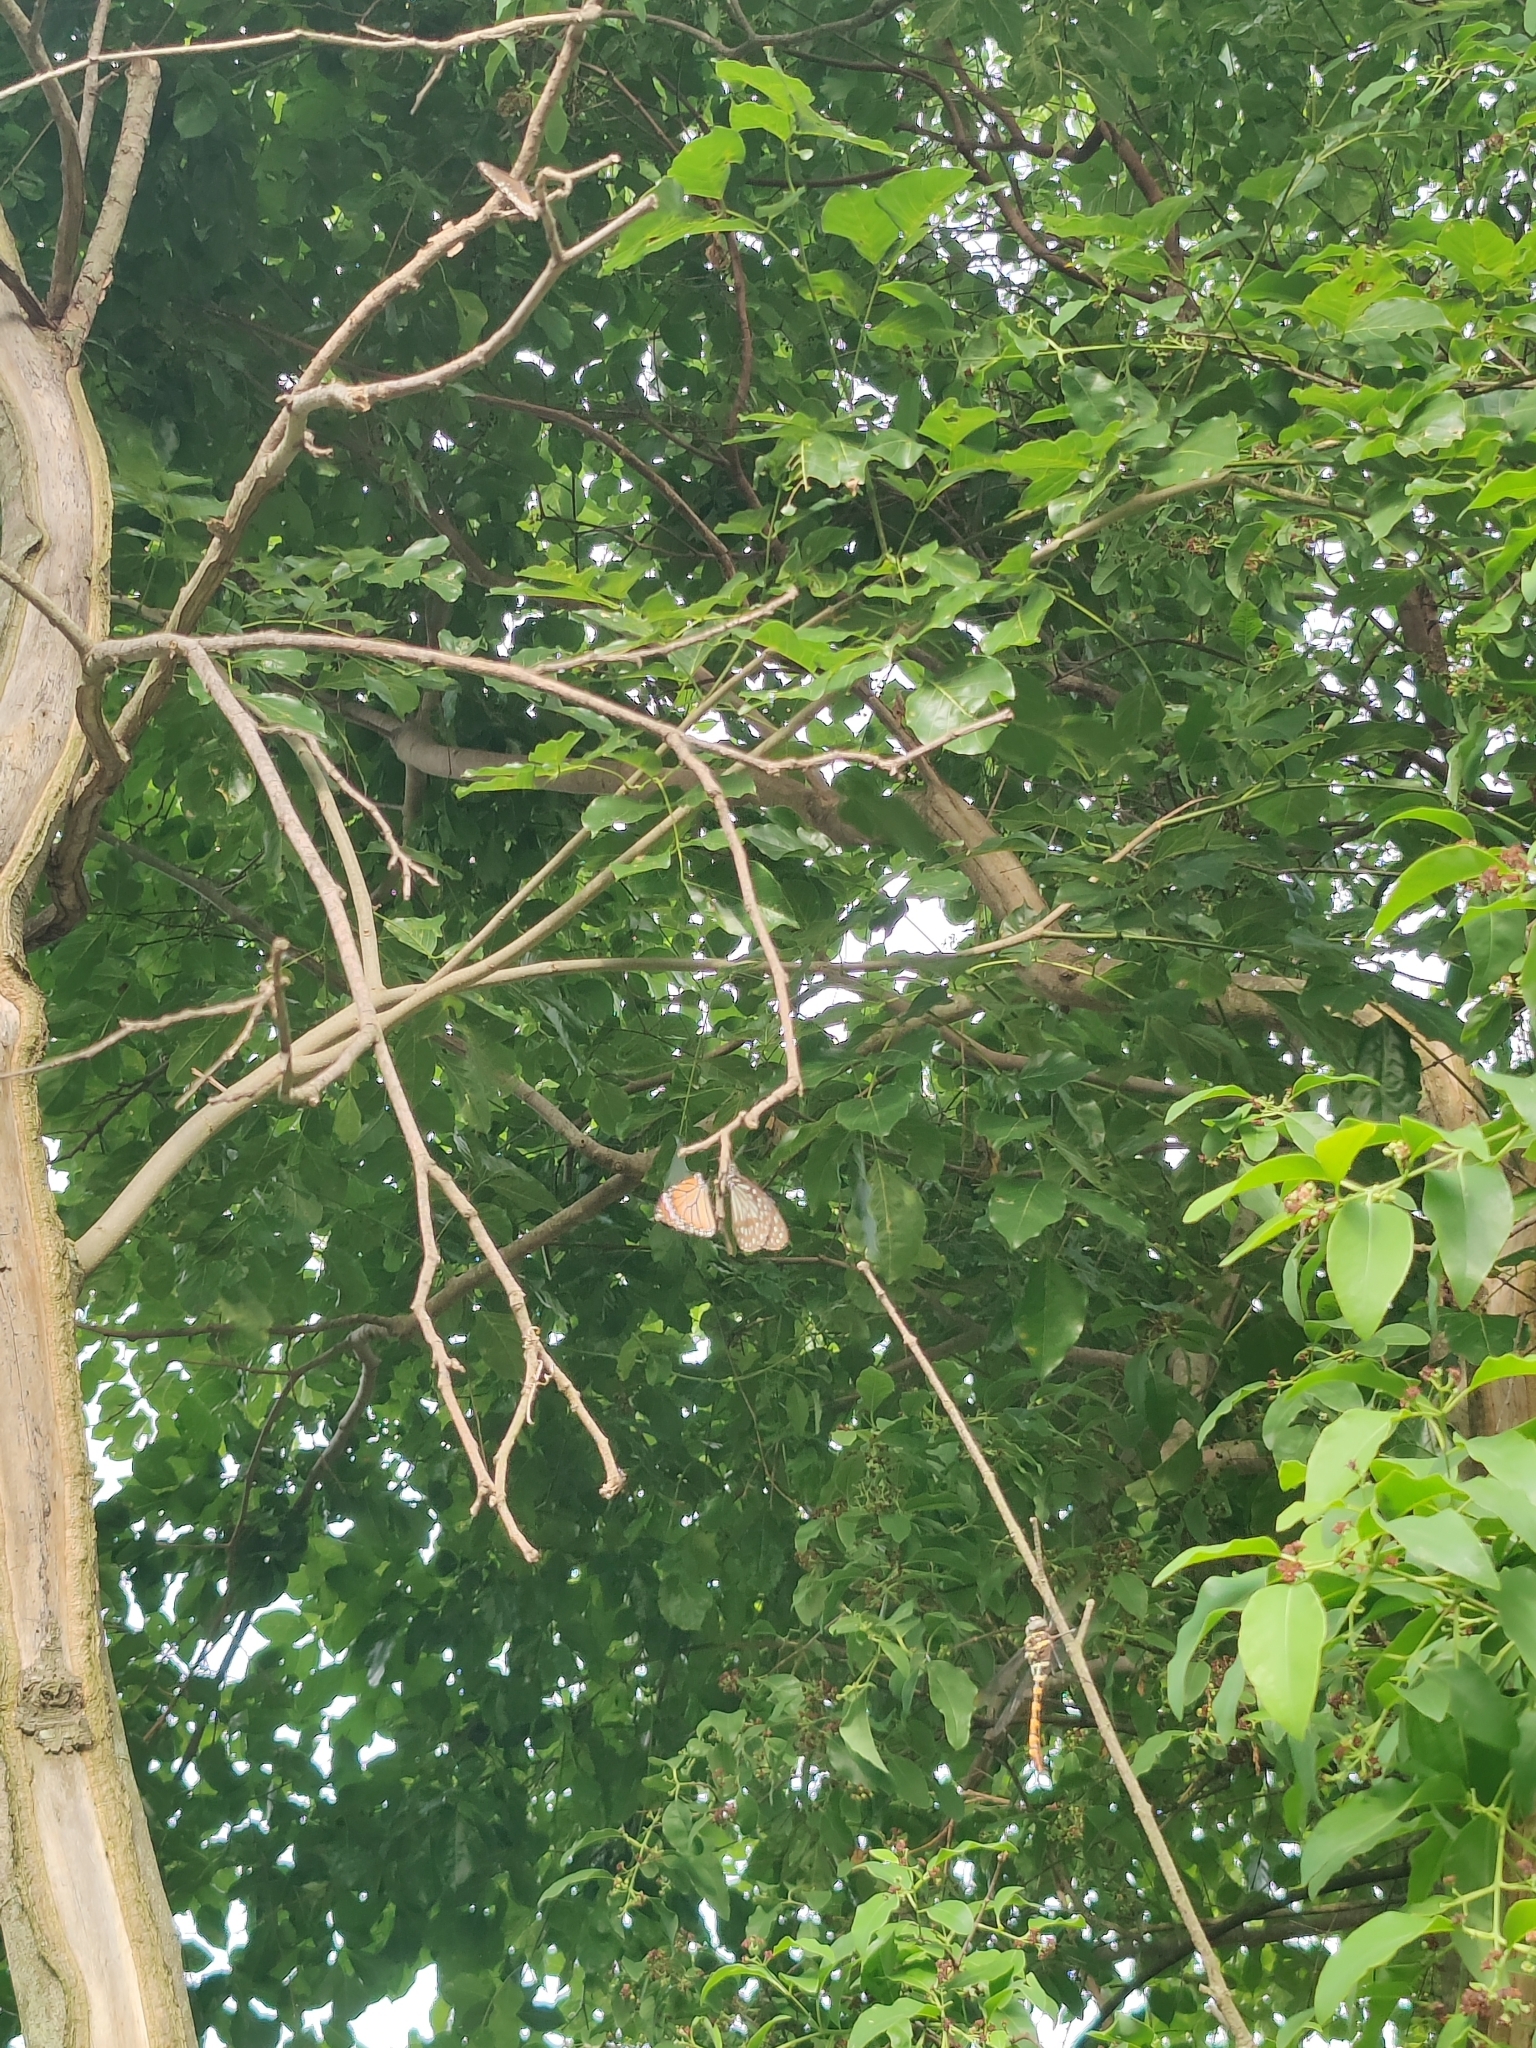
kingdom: Animalia
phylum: Arthropoda
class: Insecta
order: Lepidoptera
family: Nymphalidae
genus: Danaus
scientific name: Danaus genutia
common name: Common tiger butterfly
